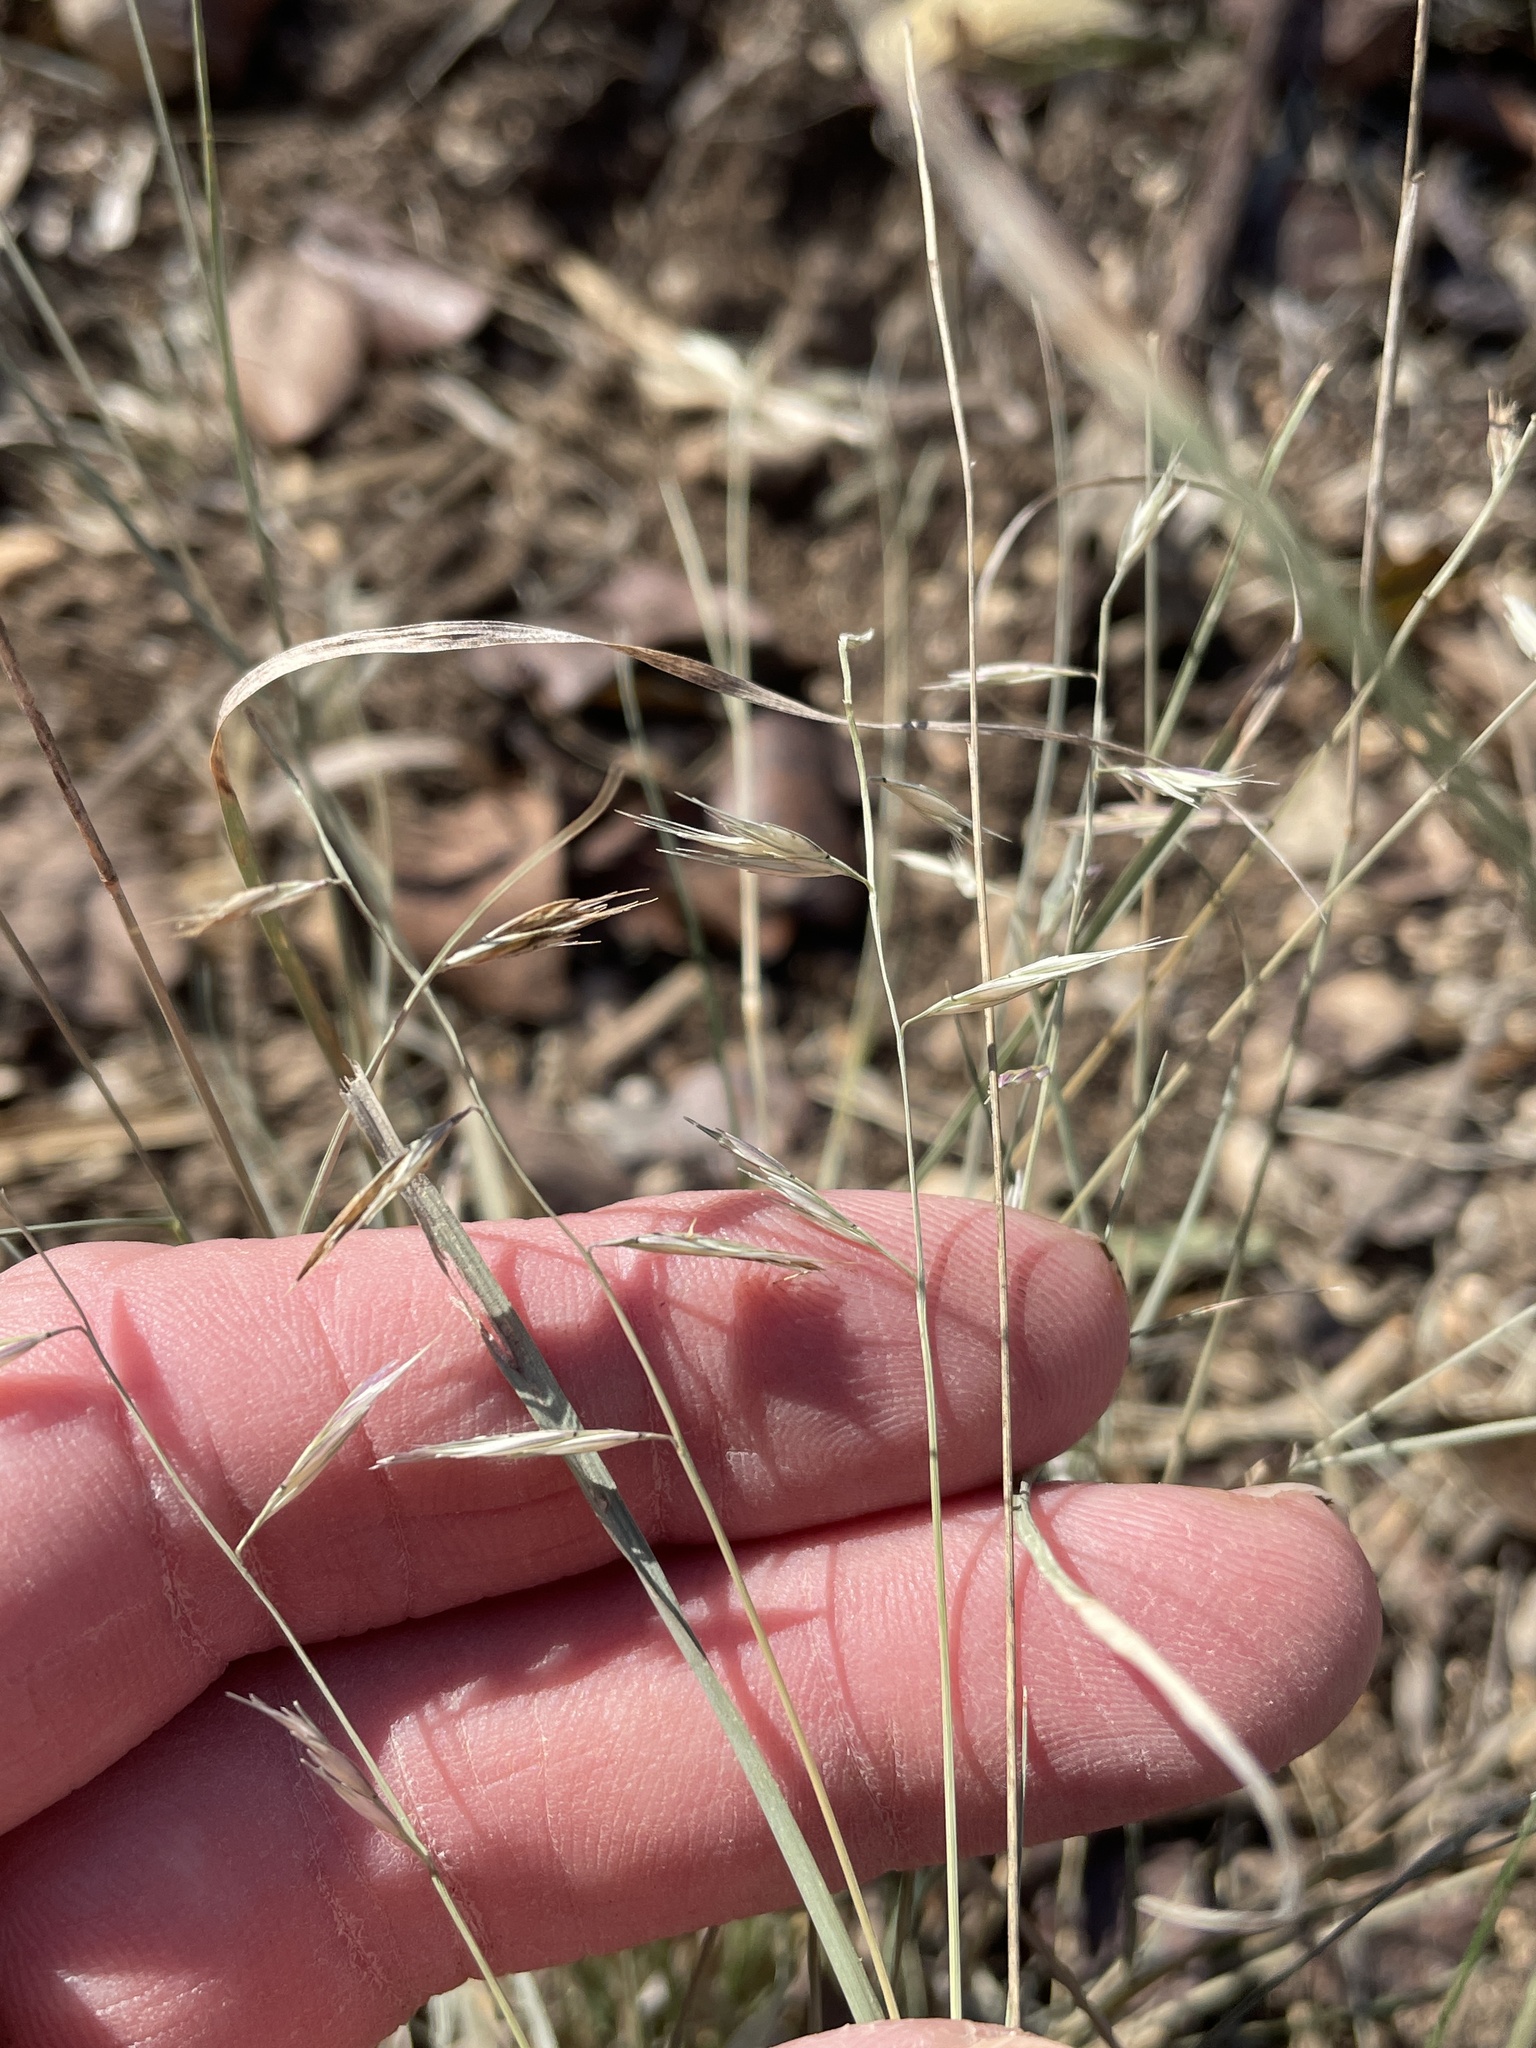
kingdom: Plantae
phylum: Tracheophyta
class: Liliopsida
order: Poales
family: Poaceae
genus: Bouteloua
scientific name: Bouteloua repens
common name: Slender grama
